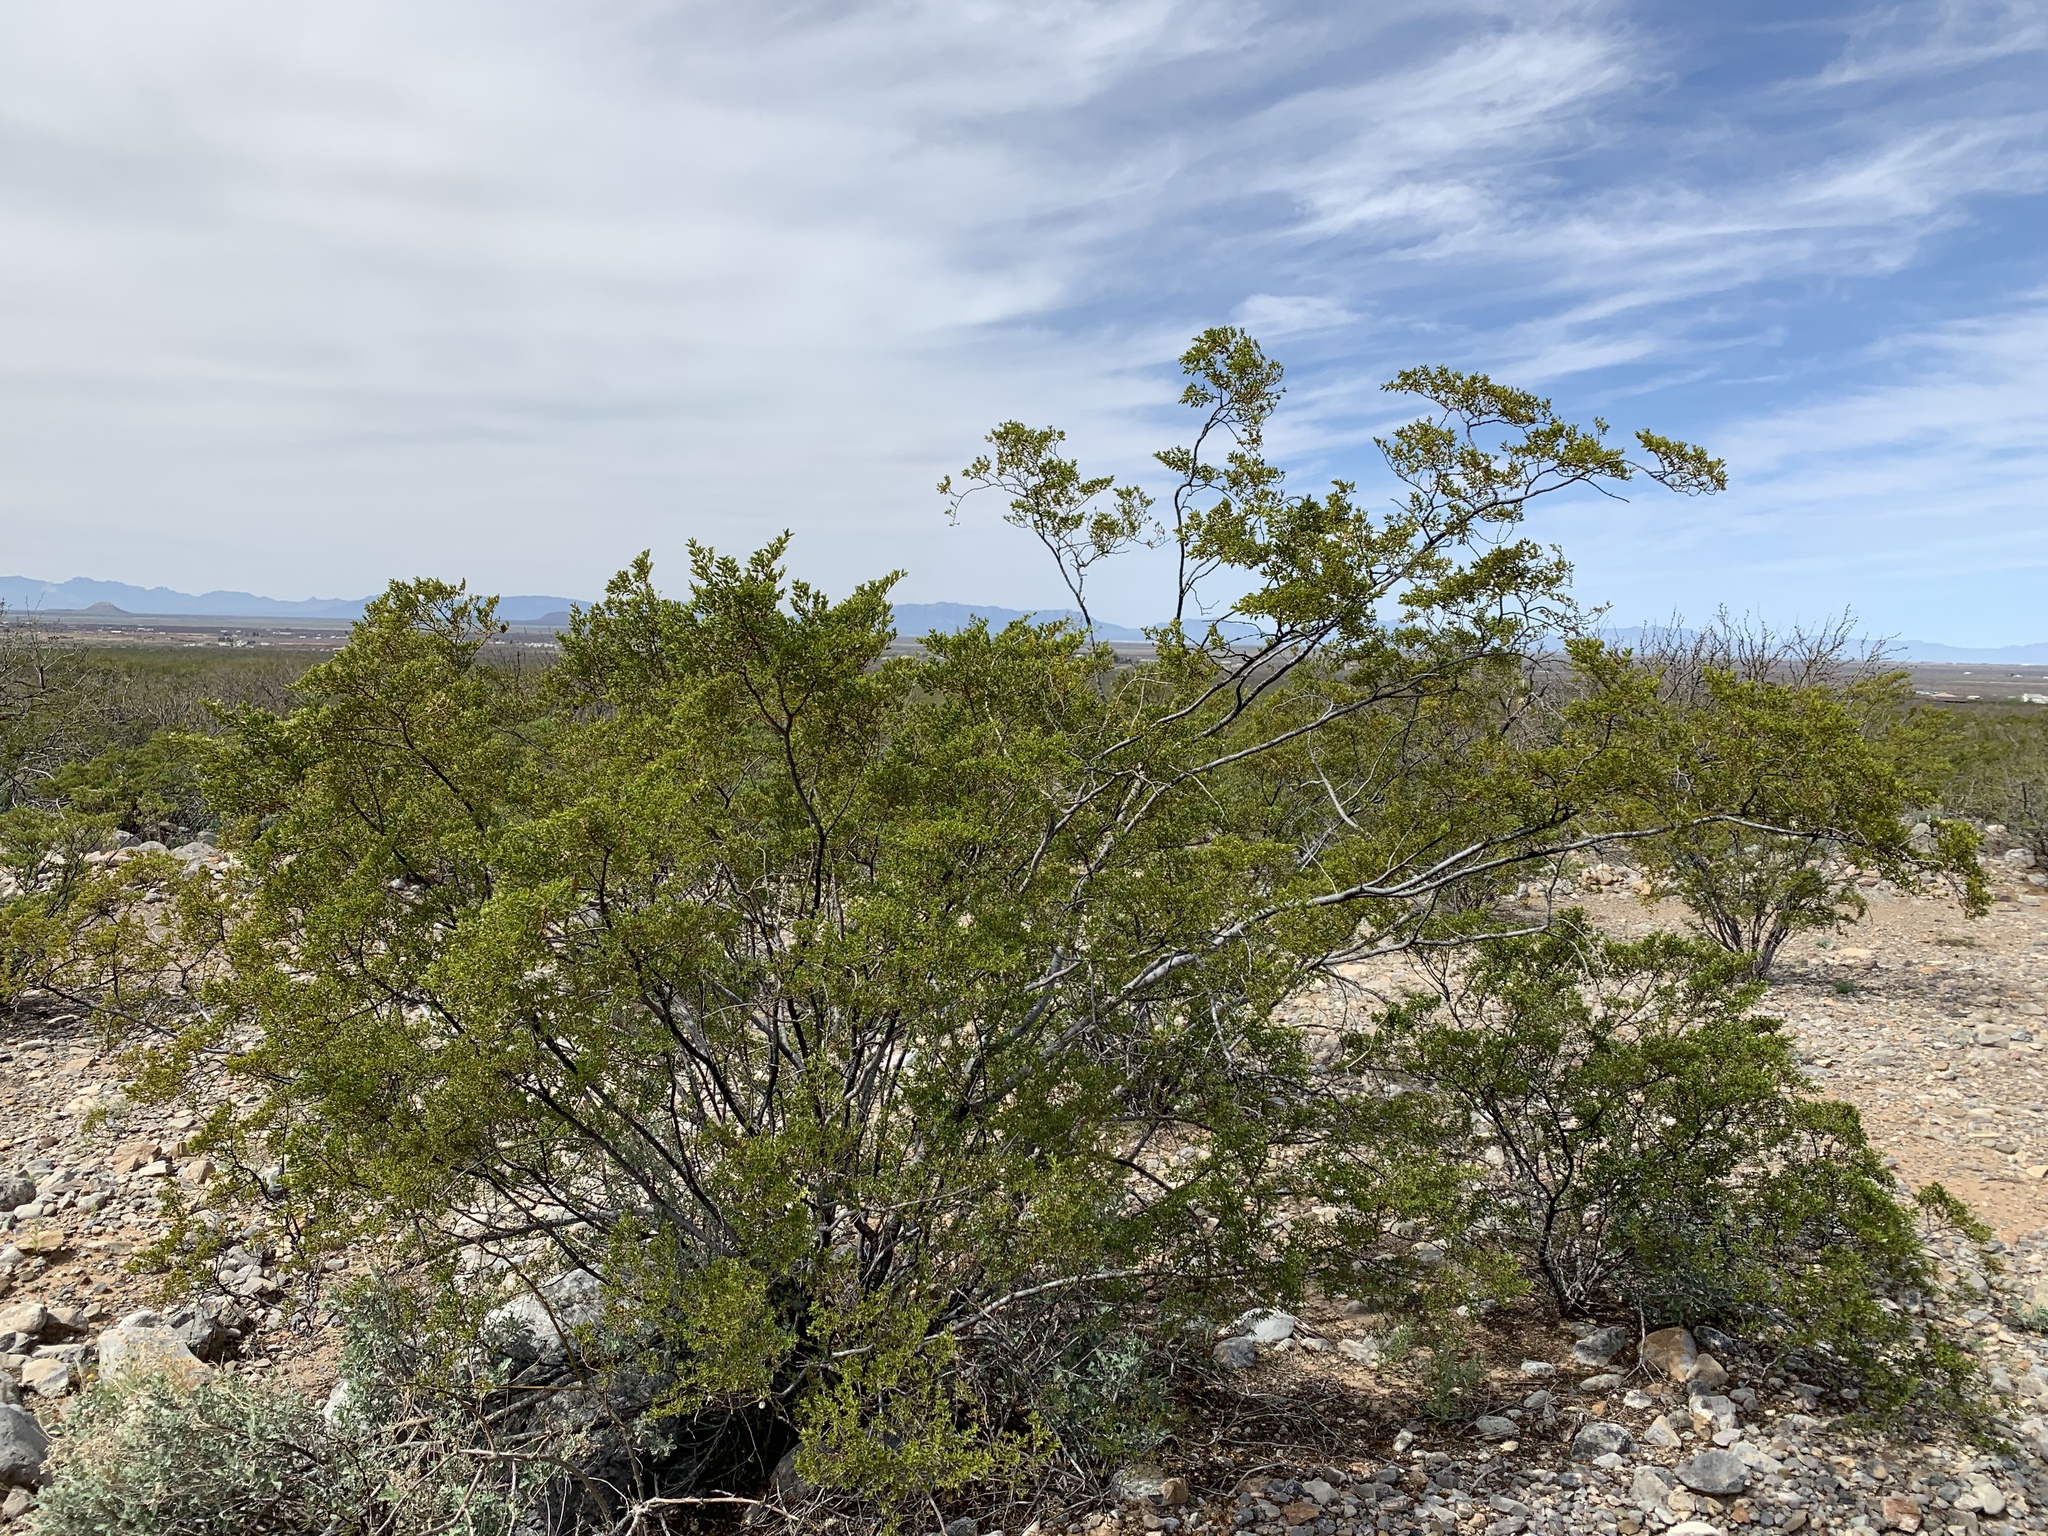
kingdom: Plantae
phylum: Tracheophyta
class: Magnoliopsida
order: Zygophyllales
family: Zygophyllaceae
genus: Larrea
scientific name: Larrea tridentata
